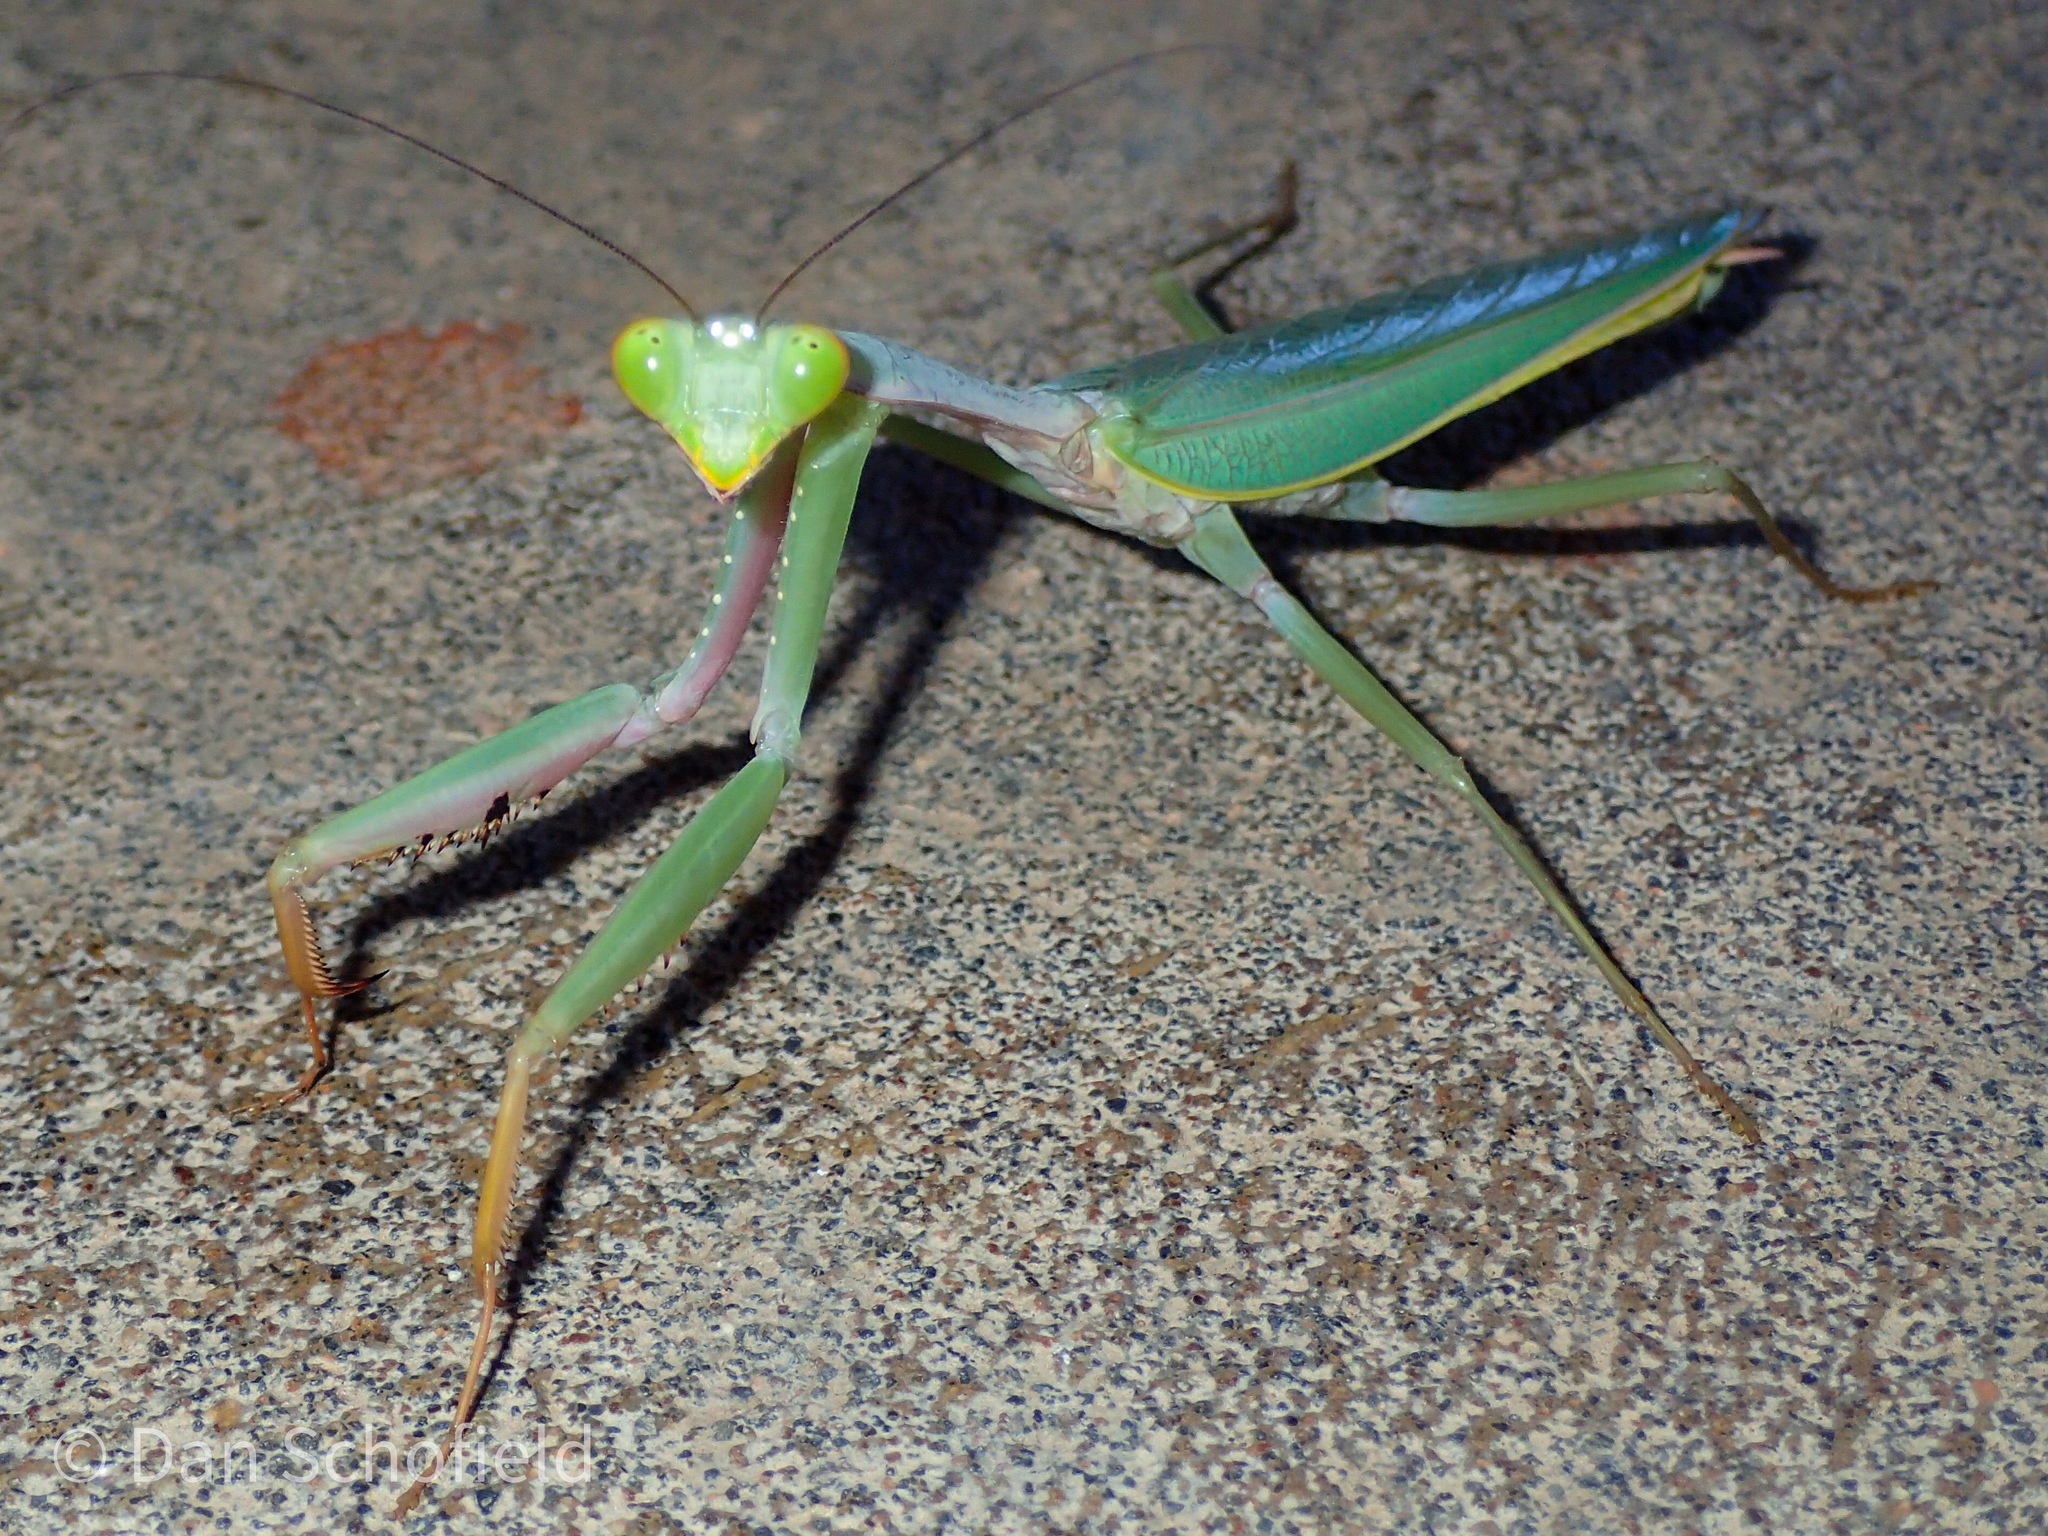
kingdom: Animalia
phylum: Arthropoda
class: Insecta
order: Mantodea
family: Mantidae
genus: Hierodula
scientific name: Hierodula obtusata
